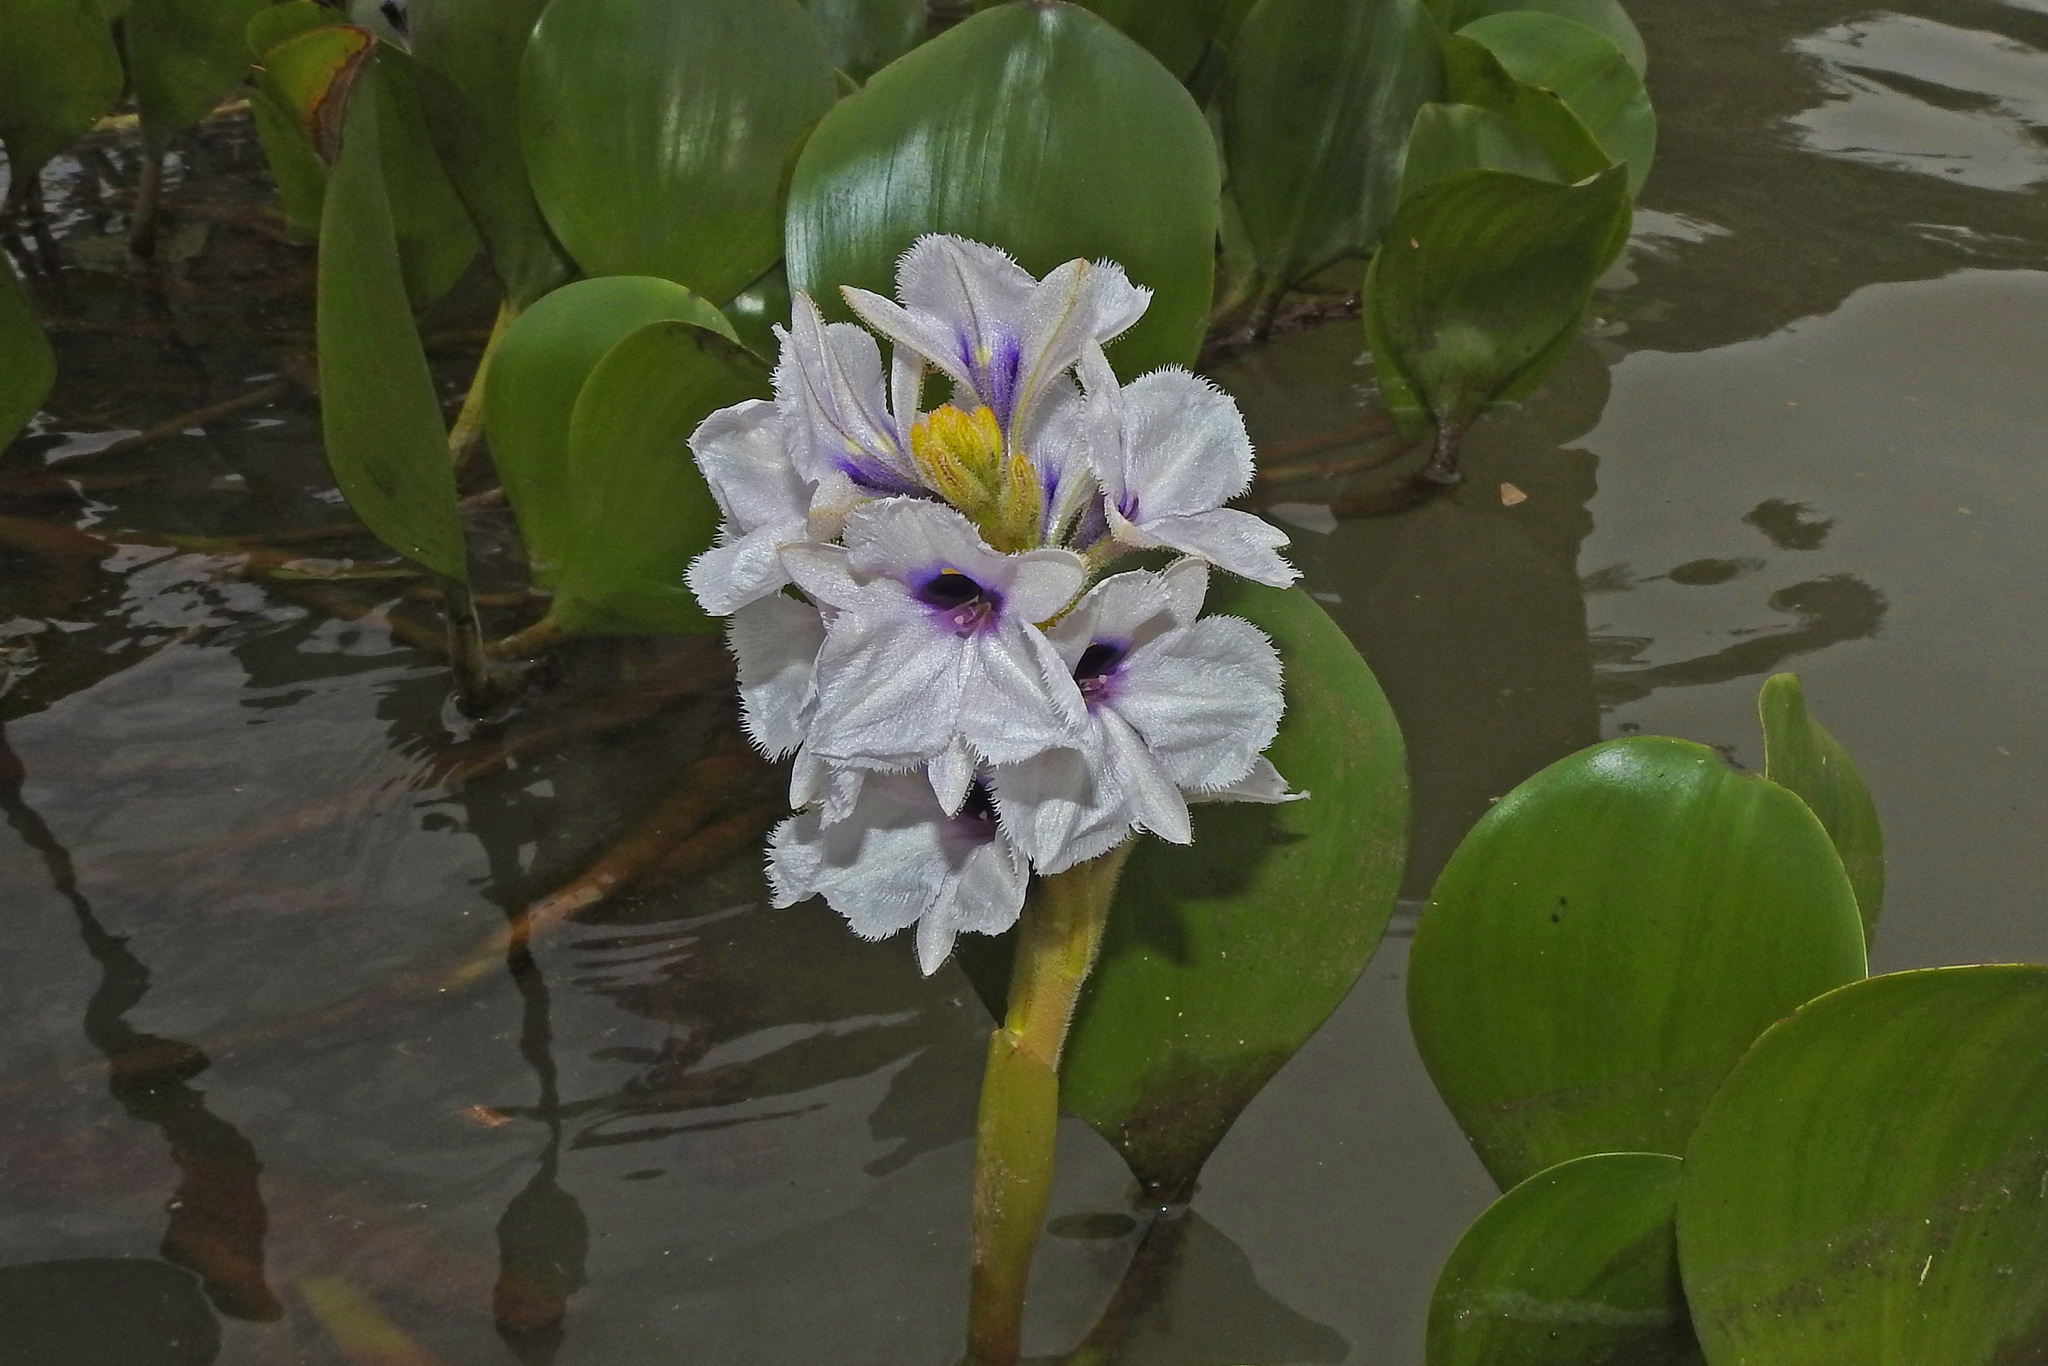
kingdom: Plantae
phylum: Tracheophyta
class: Liliopsida
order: Commelinales
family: Pontederiaceae
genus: Pontederia
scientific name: Pontederia azurea
